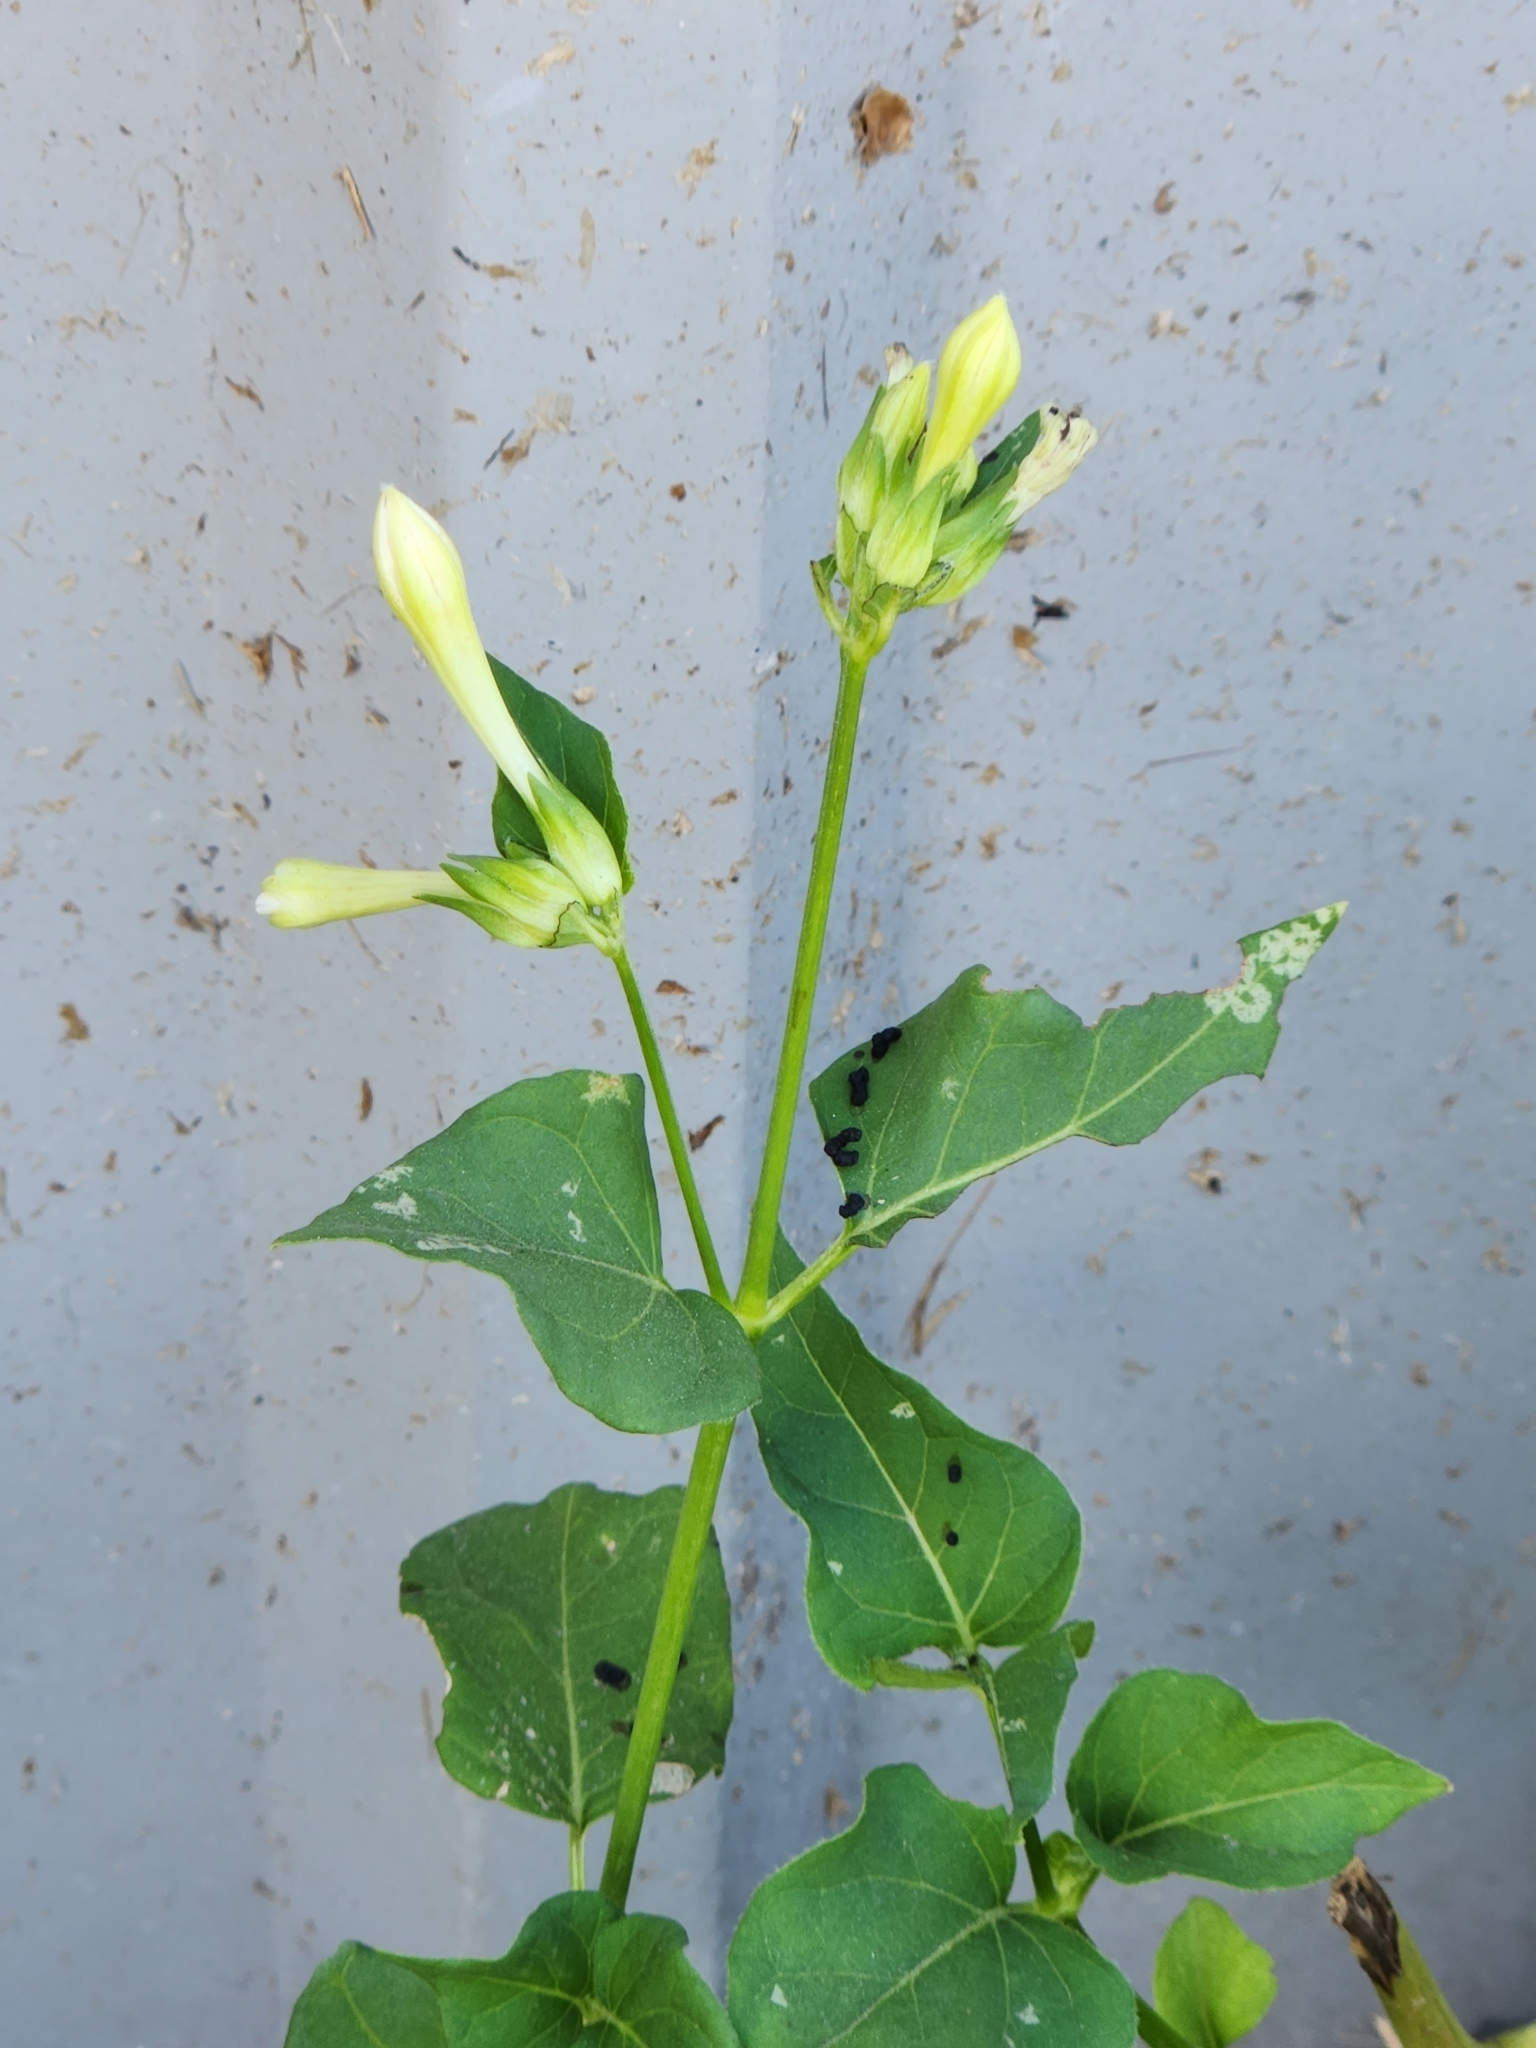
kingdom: Plantae
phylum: Tracheophyta
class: Magnoliopsida
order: Caryophyllales
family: Nyctaginaceae
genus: Mirabilis
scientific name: Mirabilis jalapa
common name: Marvel-of-peru
